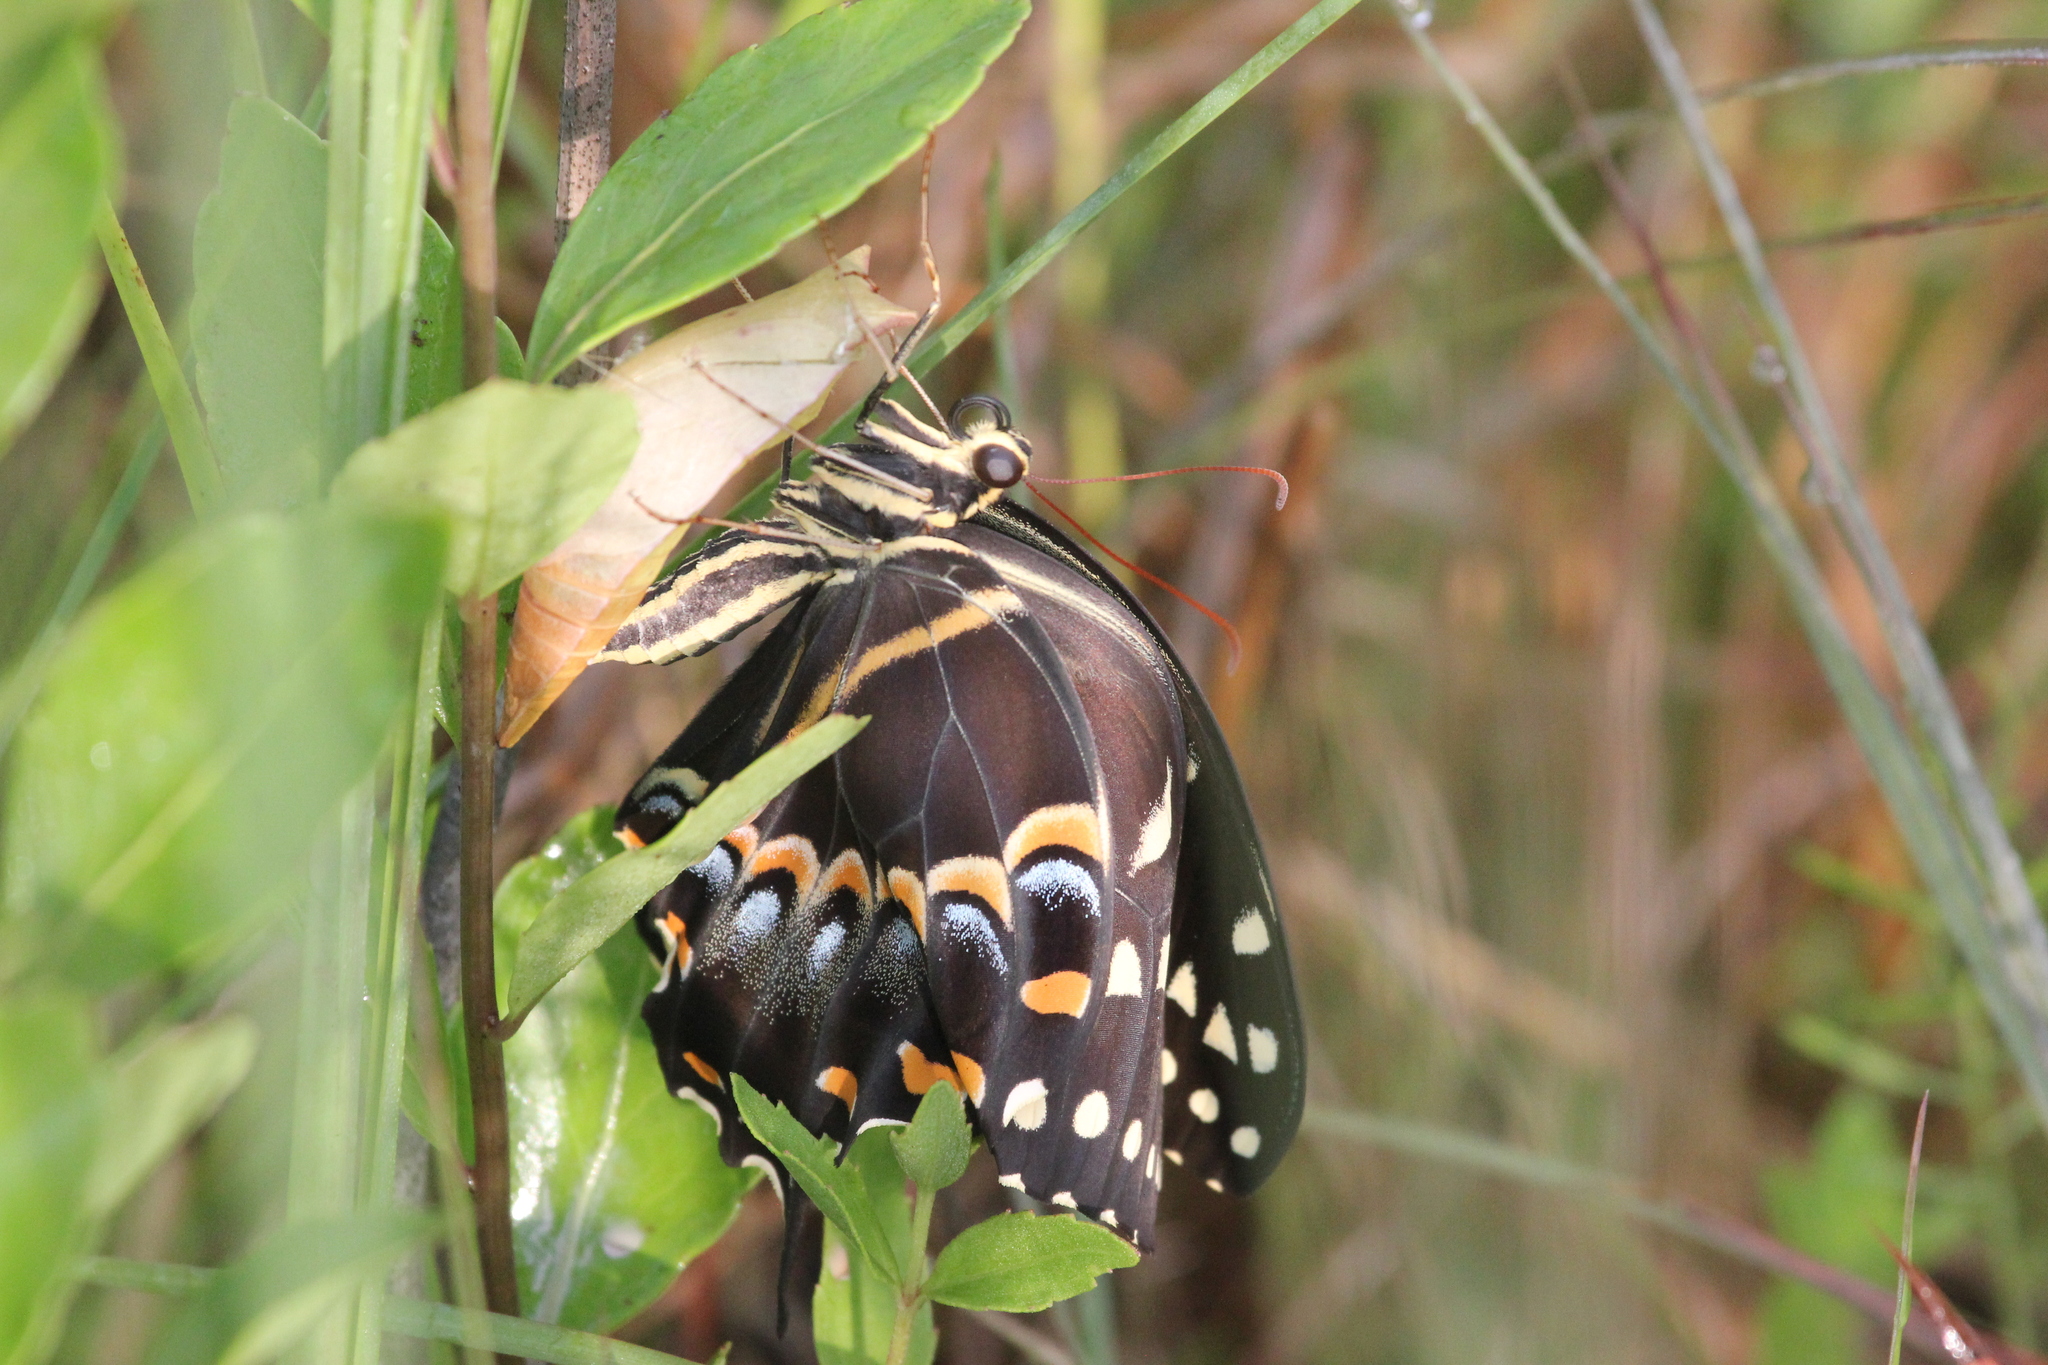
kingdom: Animalia
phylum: Arthropoda
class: Insecta
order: Lepidoptera
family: Papilionidae
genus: Papilio
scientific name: Papilio palamedes
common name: Palamedes swallowtail
